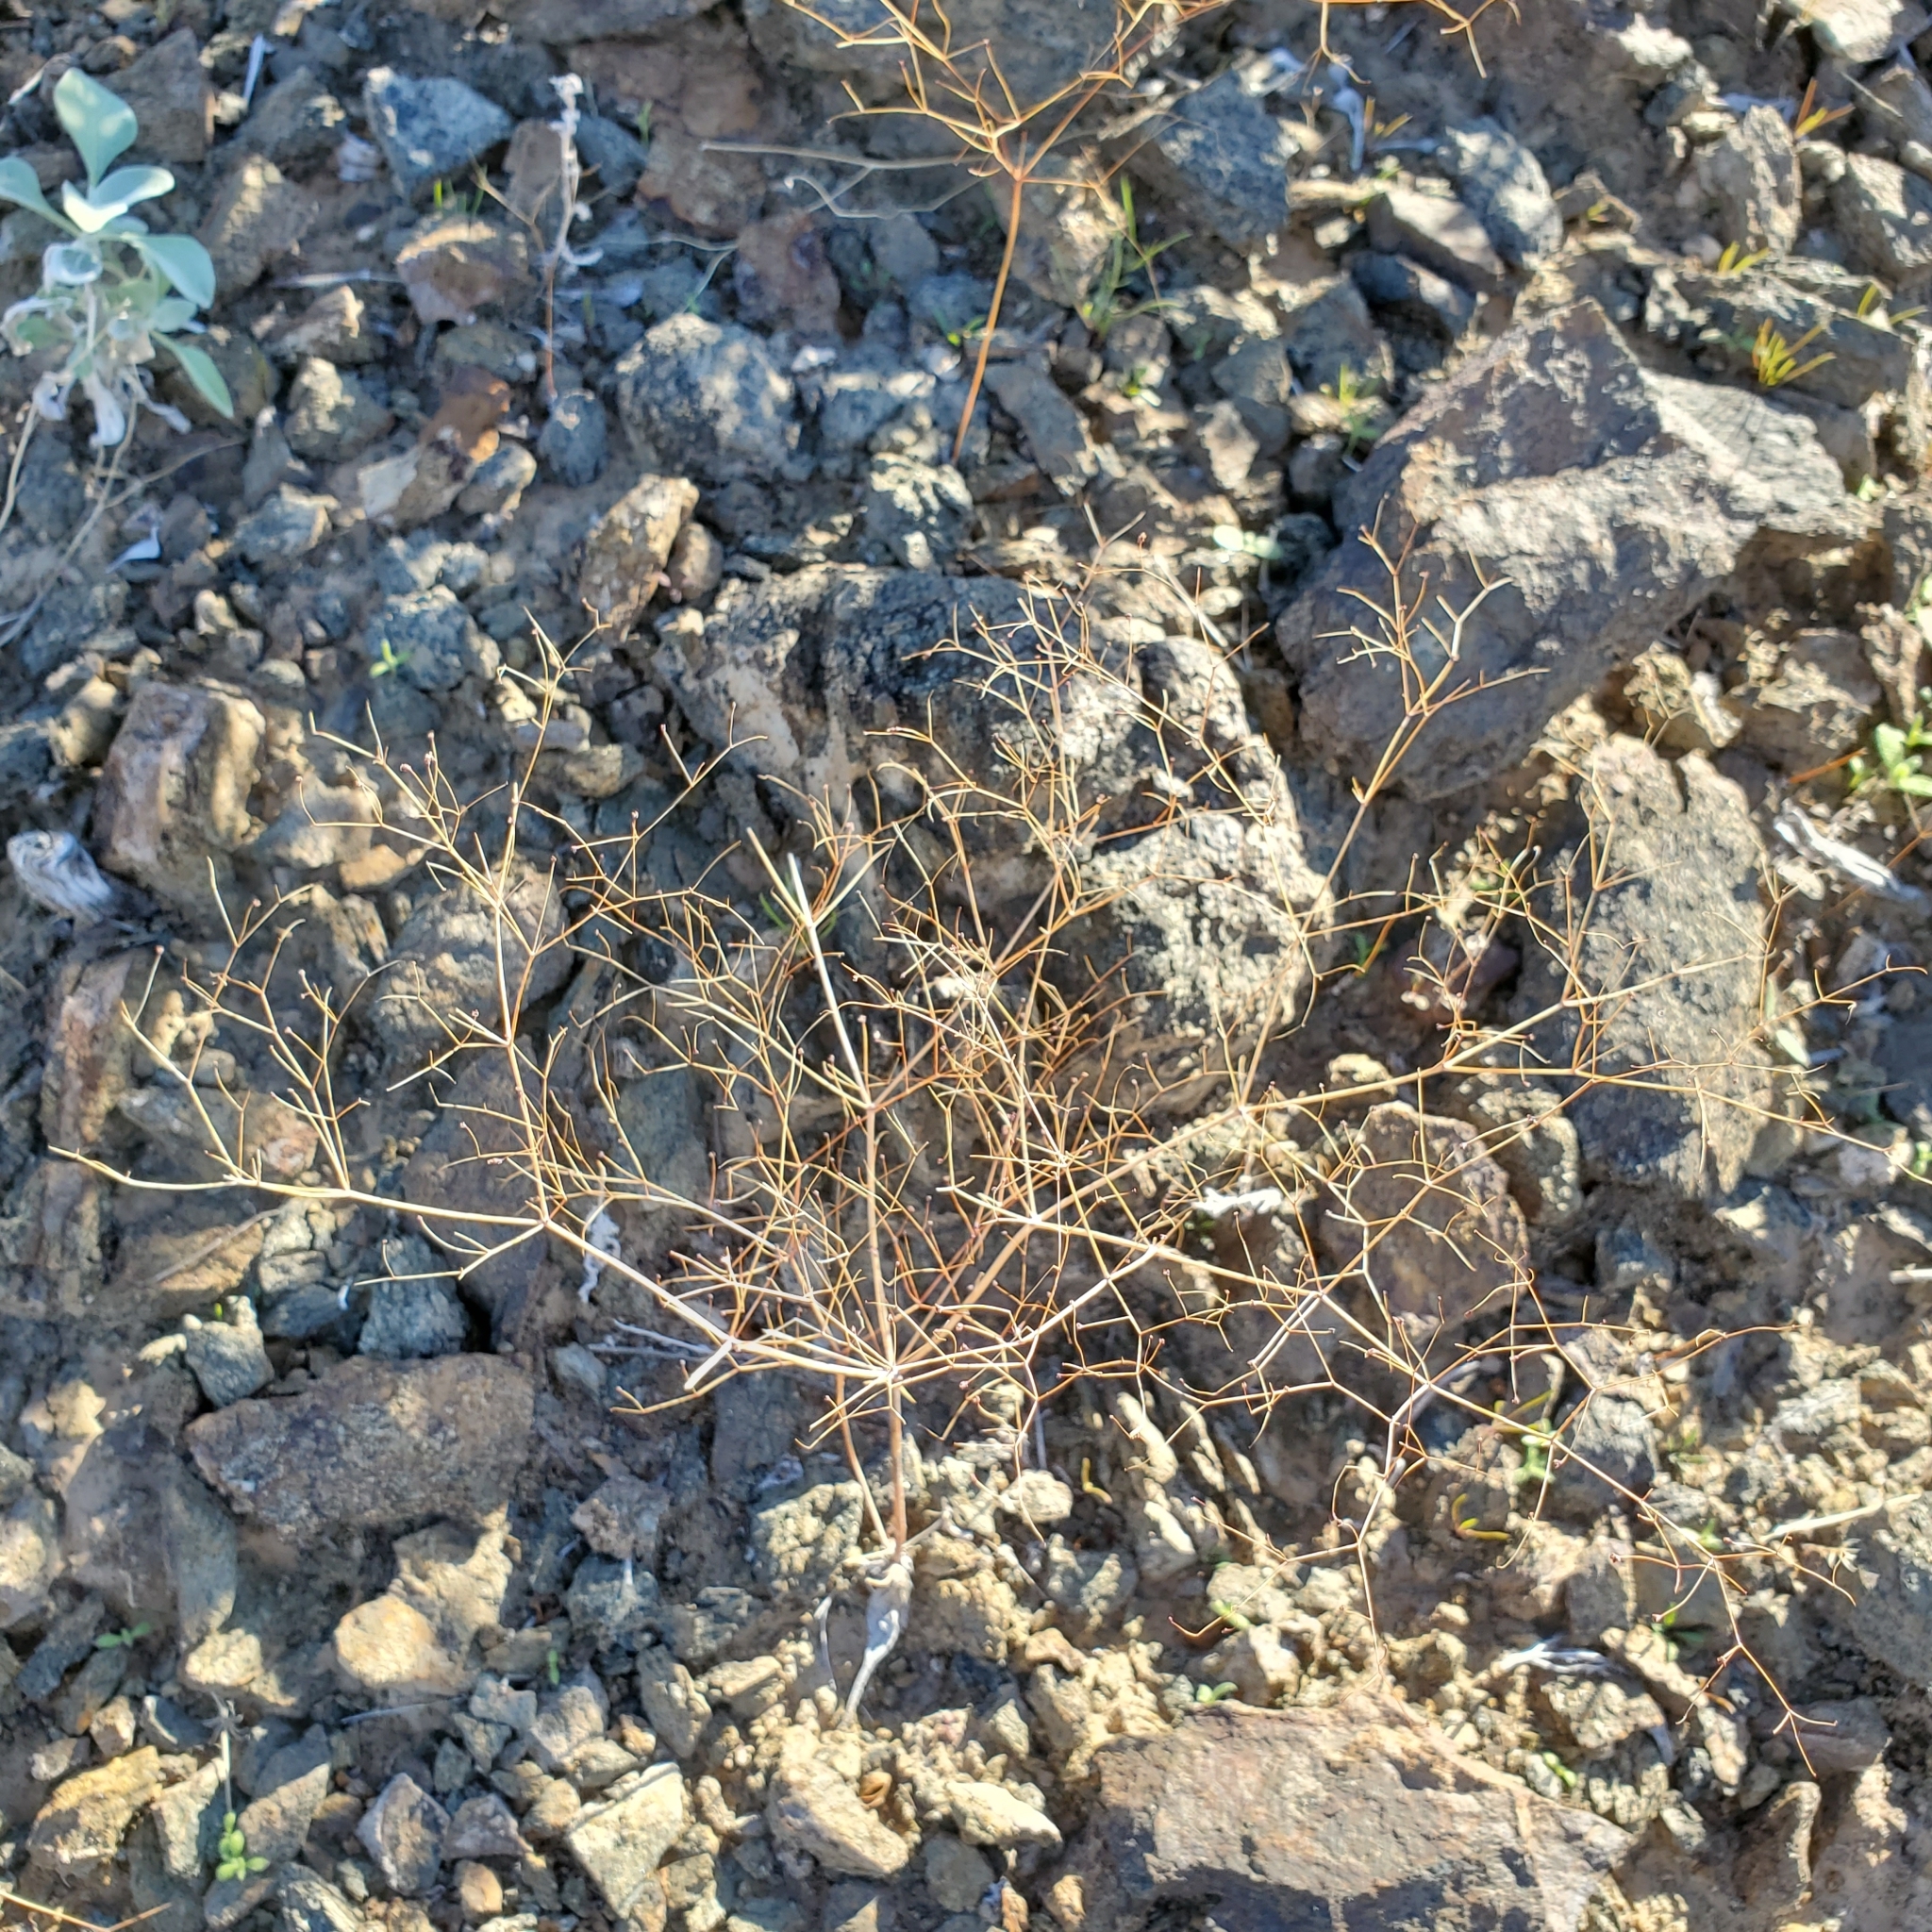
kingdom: Plantae
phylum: Tracheophyta
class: Magnoliopsida
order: Caryophyllales
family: Polygonaceae
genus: Eriogonum
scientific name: Eriogonum trichopes
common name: Little desert trumpet
